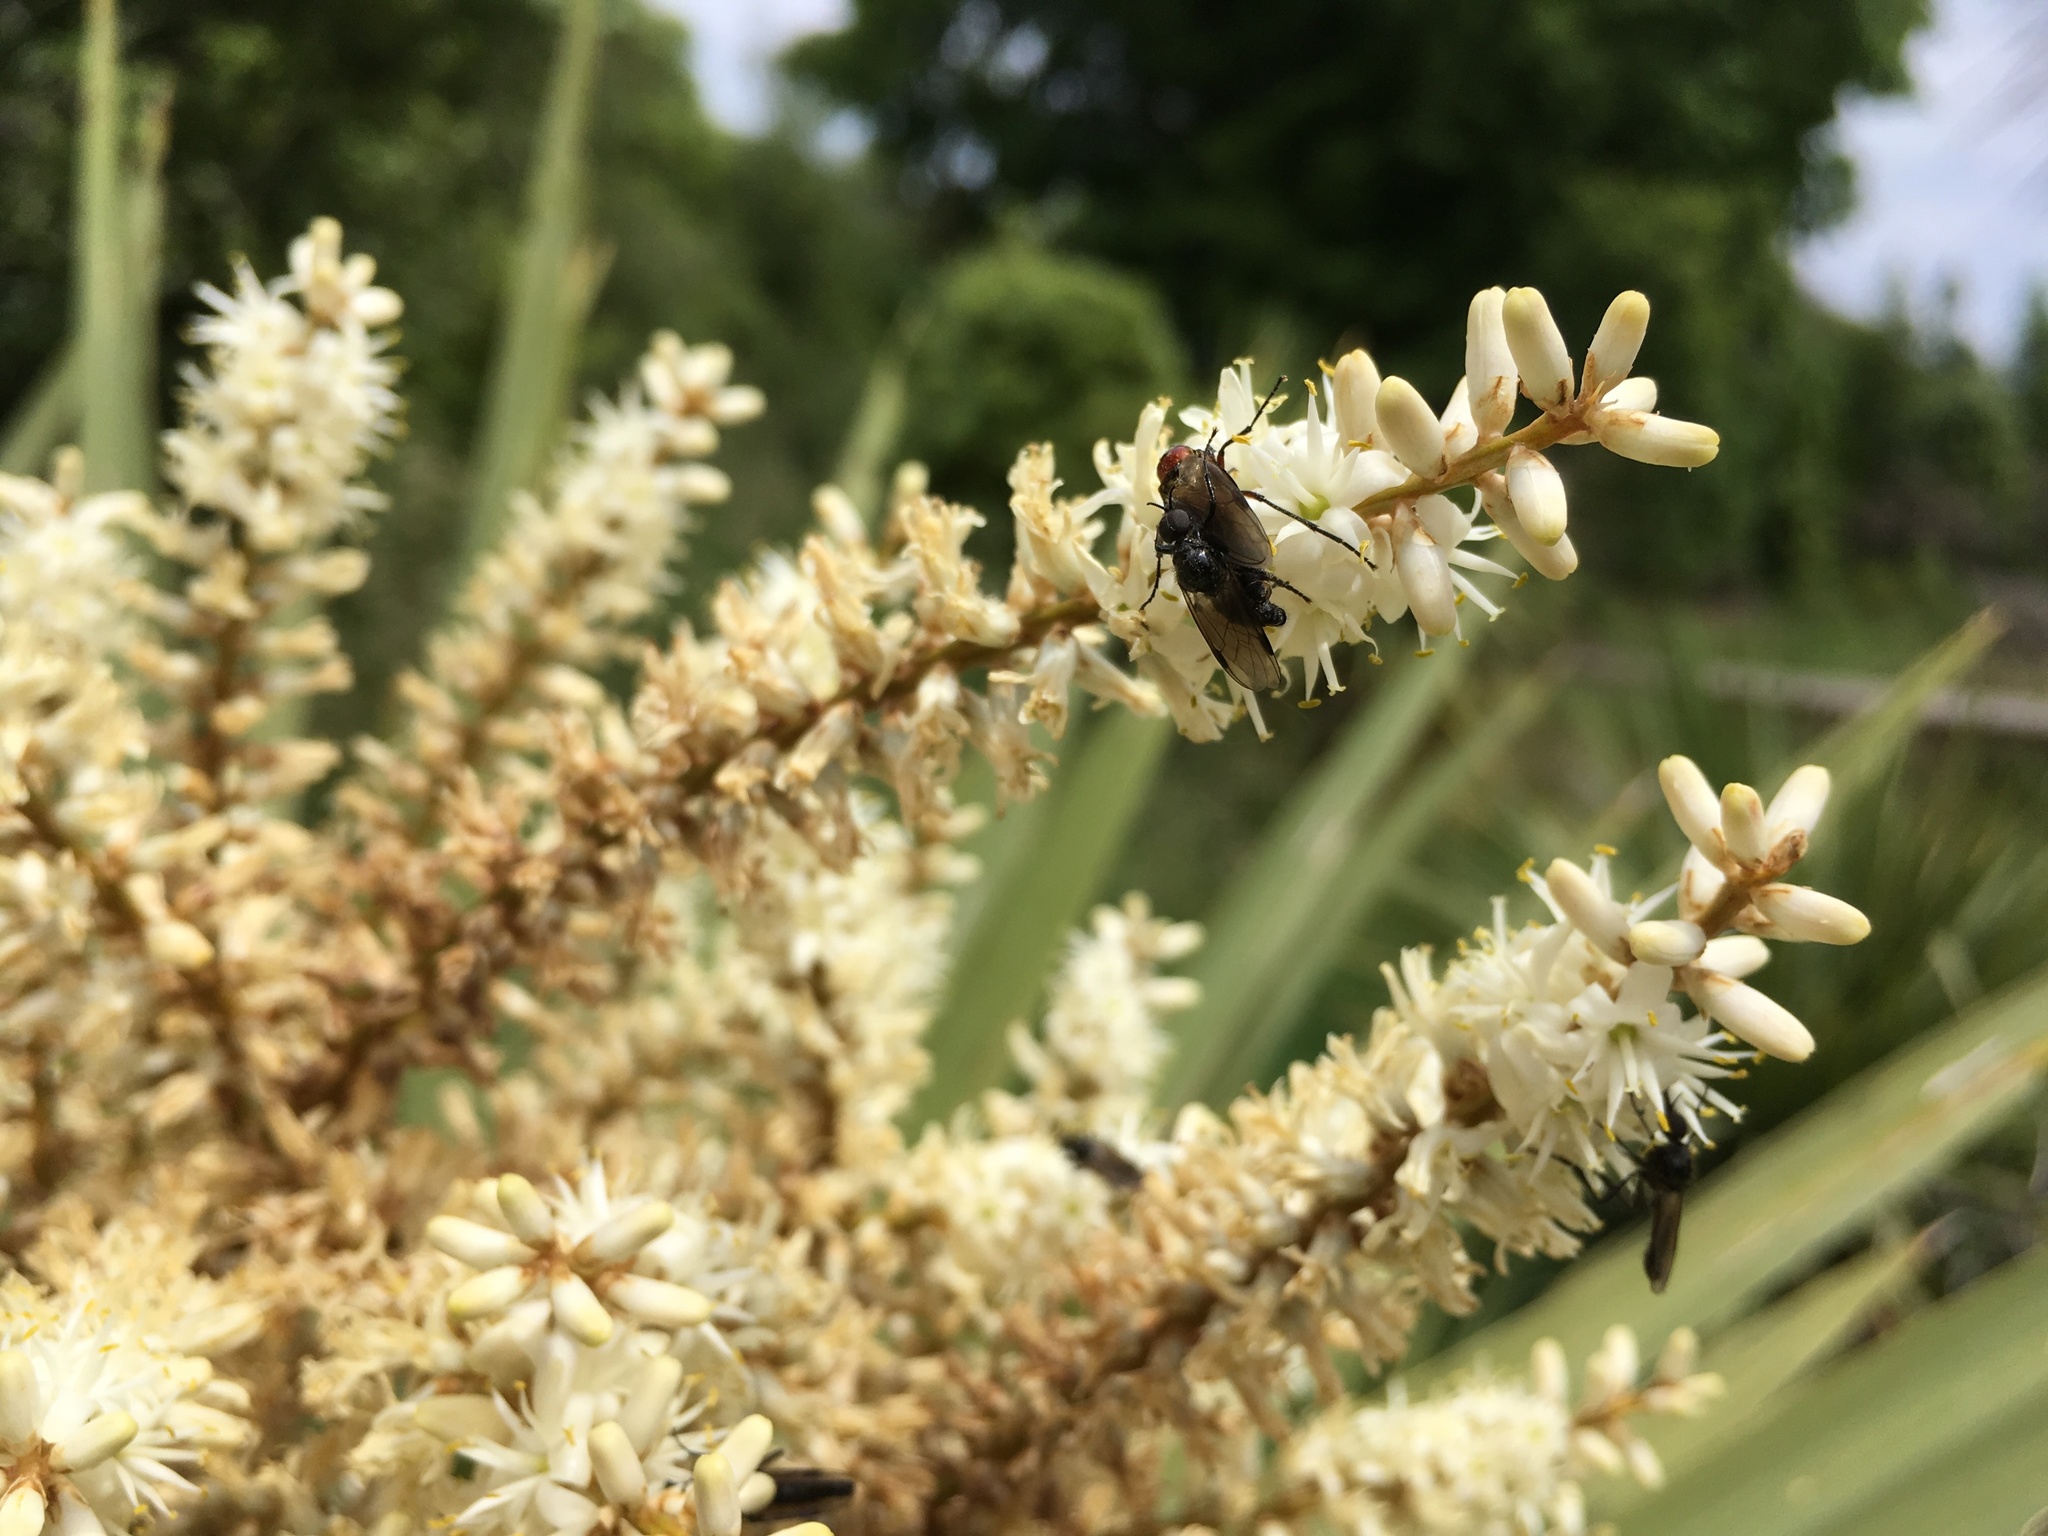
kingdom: Animalia
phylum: Arthropoda
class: Insecta
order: Diptera
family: Bibionidae
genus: Dilophus
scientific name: Dilophus nigrostigma
